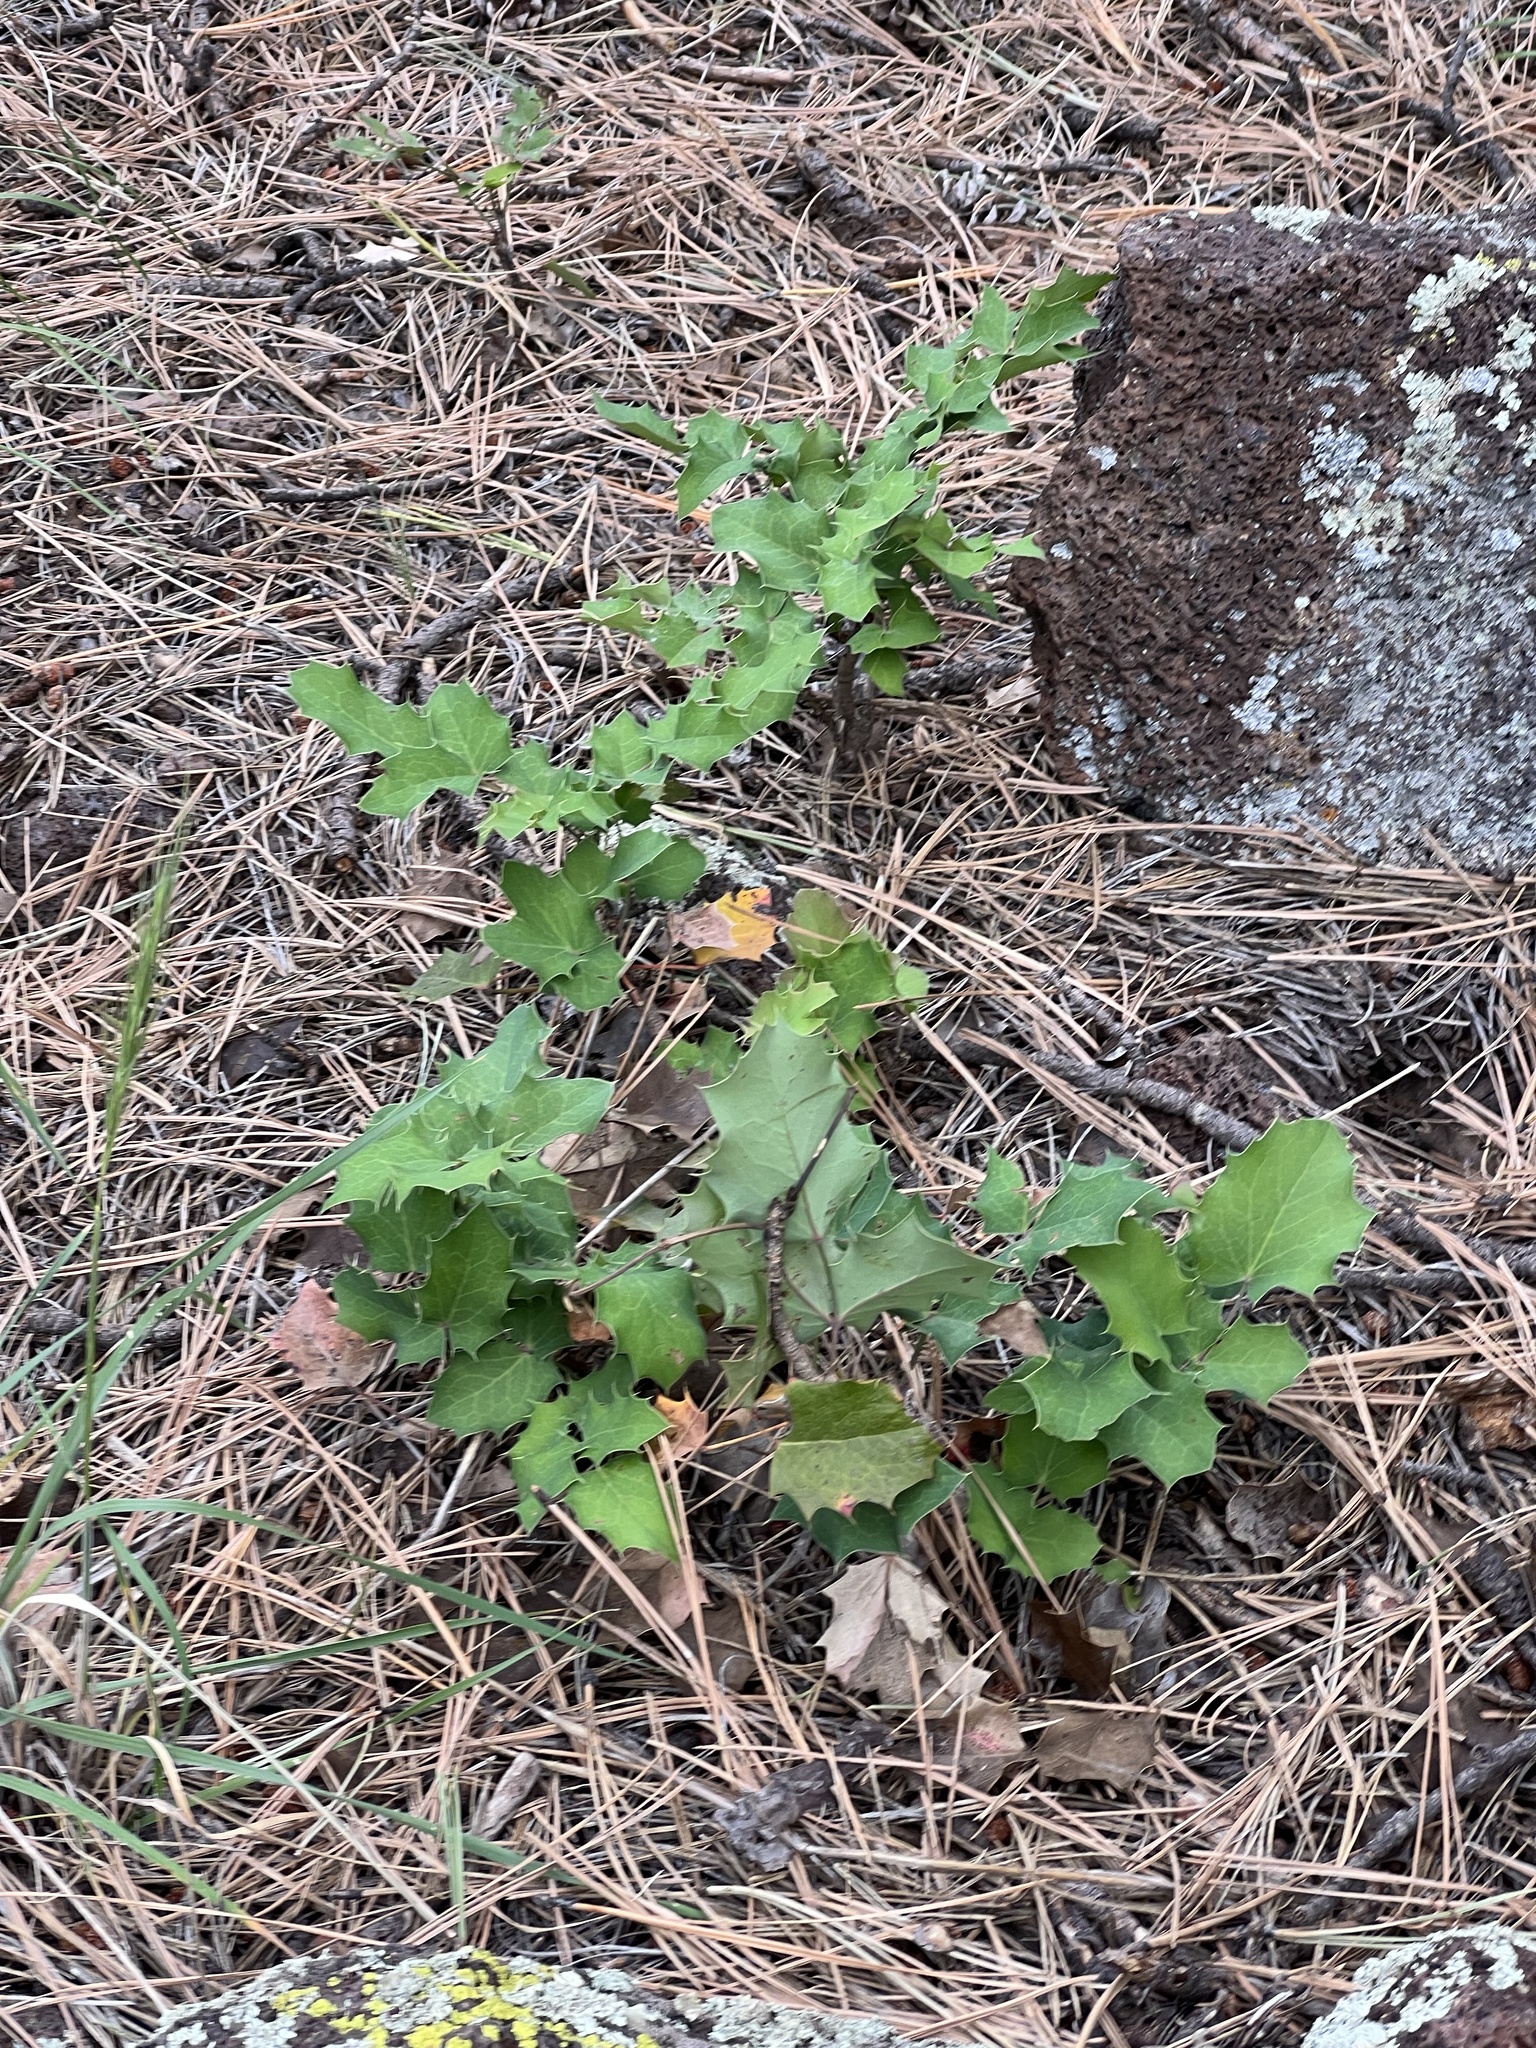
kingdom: Plantae
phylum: Tracheophyta
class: Magnoliopsida
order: Ranunculales
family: Berberidaceae
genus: Mahonia
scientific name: Mahonia repens
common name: Creeping oregon-grape
